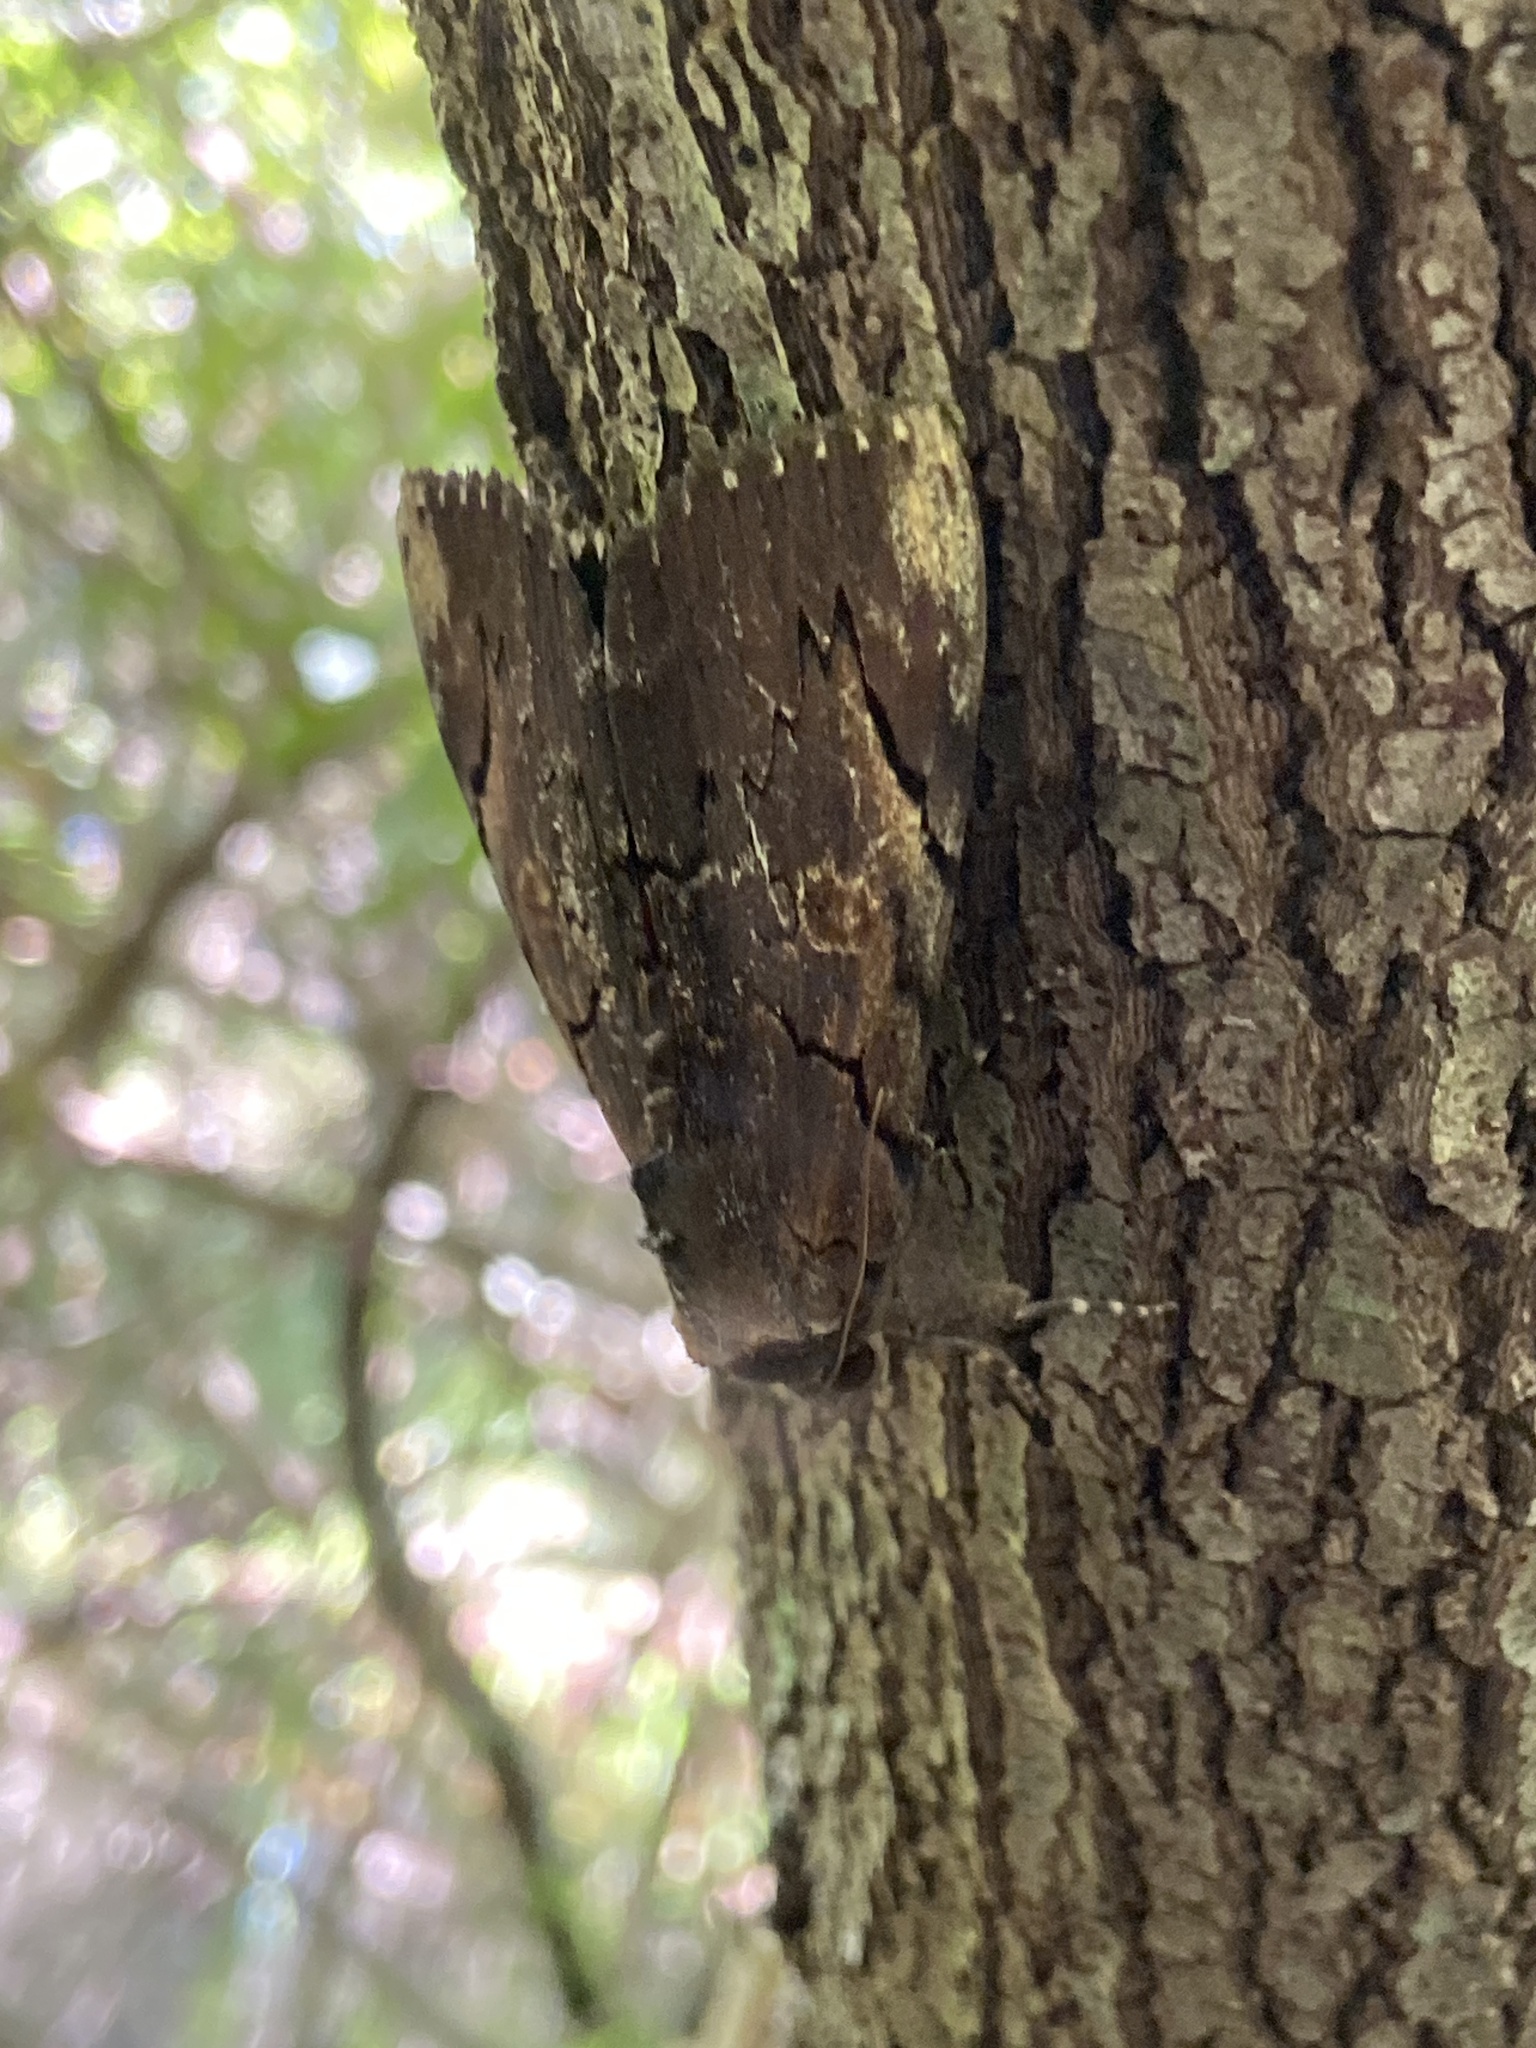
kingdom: Animalia
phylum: Arthropoda
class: Insecta
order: Lepidoptera
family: Erebidae
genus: Catocala
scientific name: Catocala carissima
